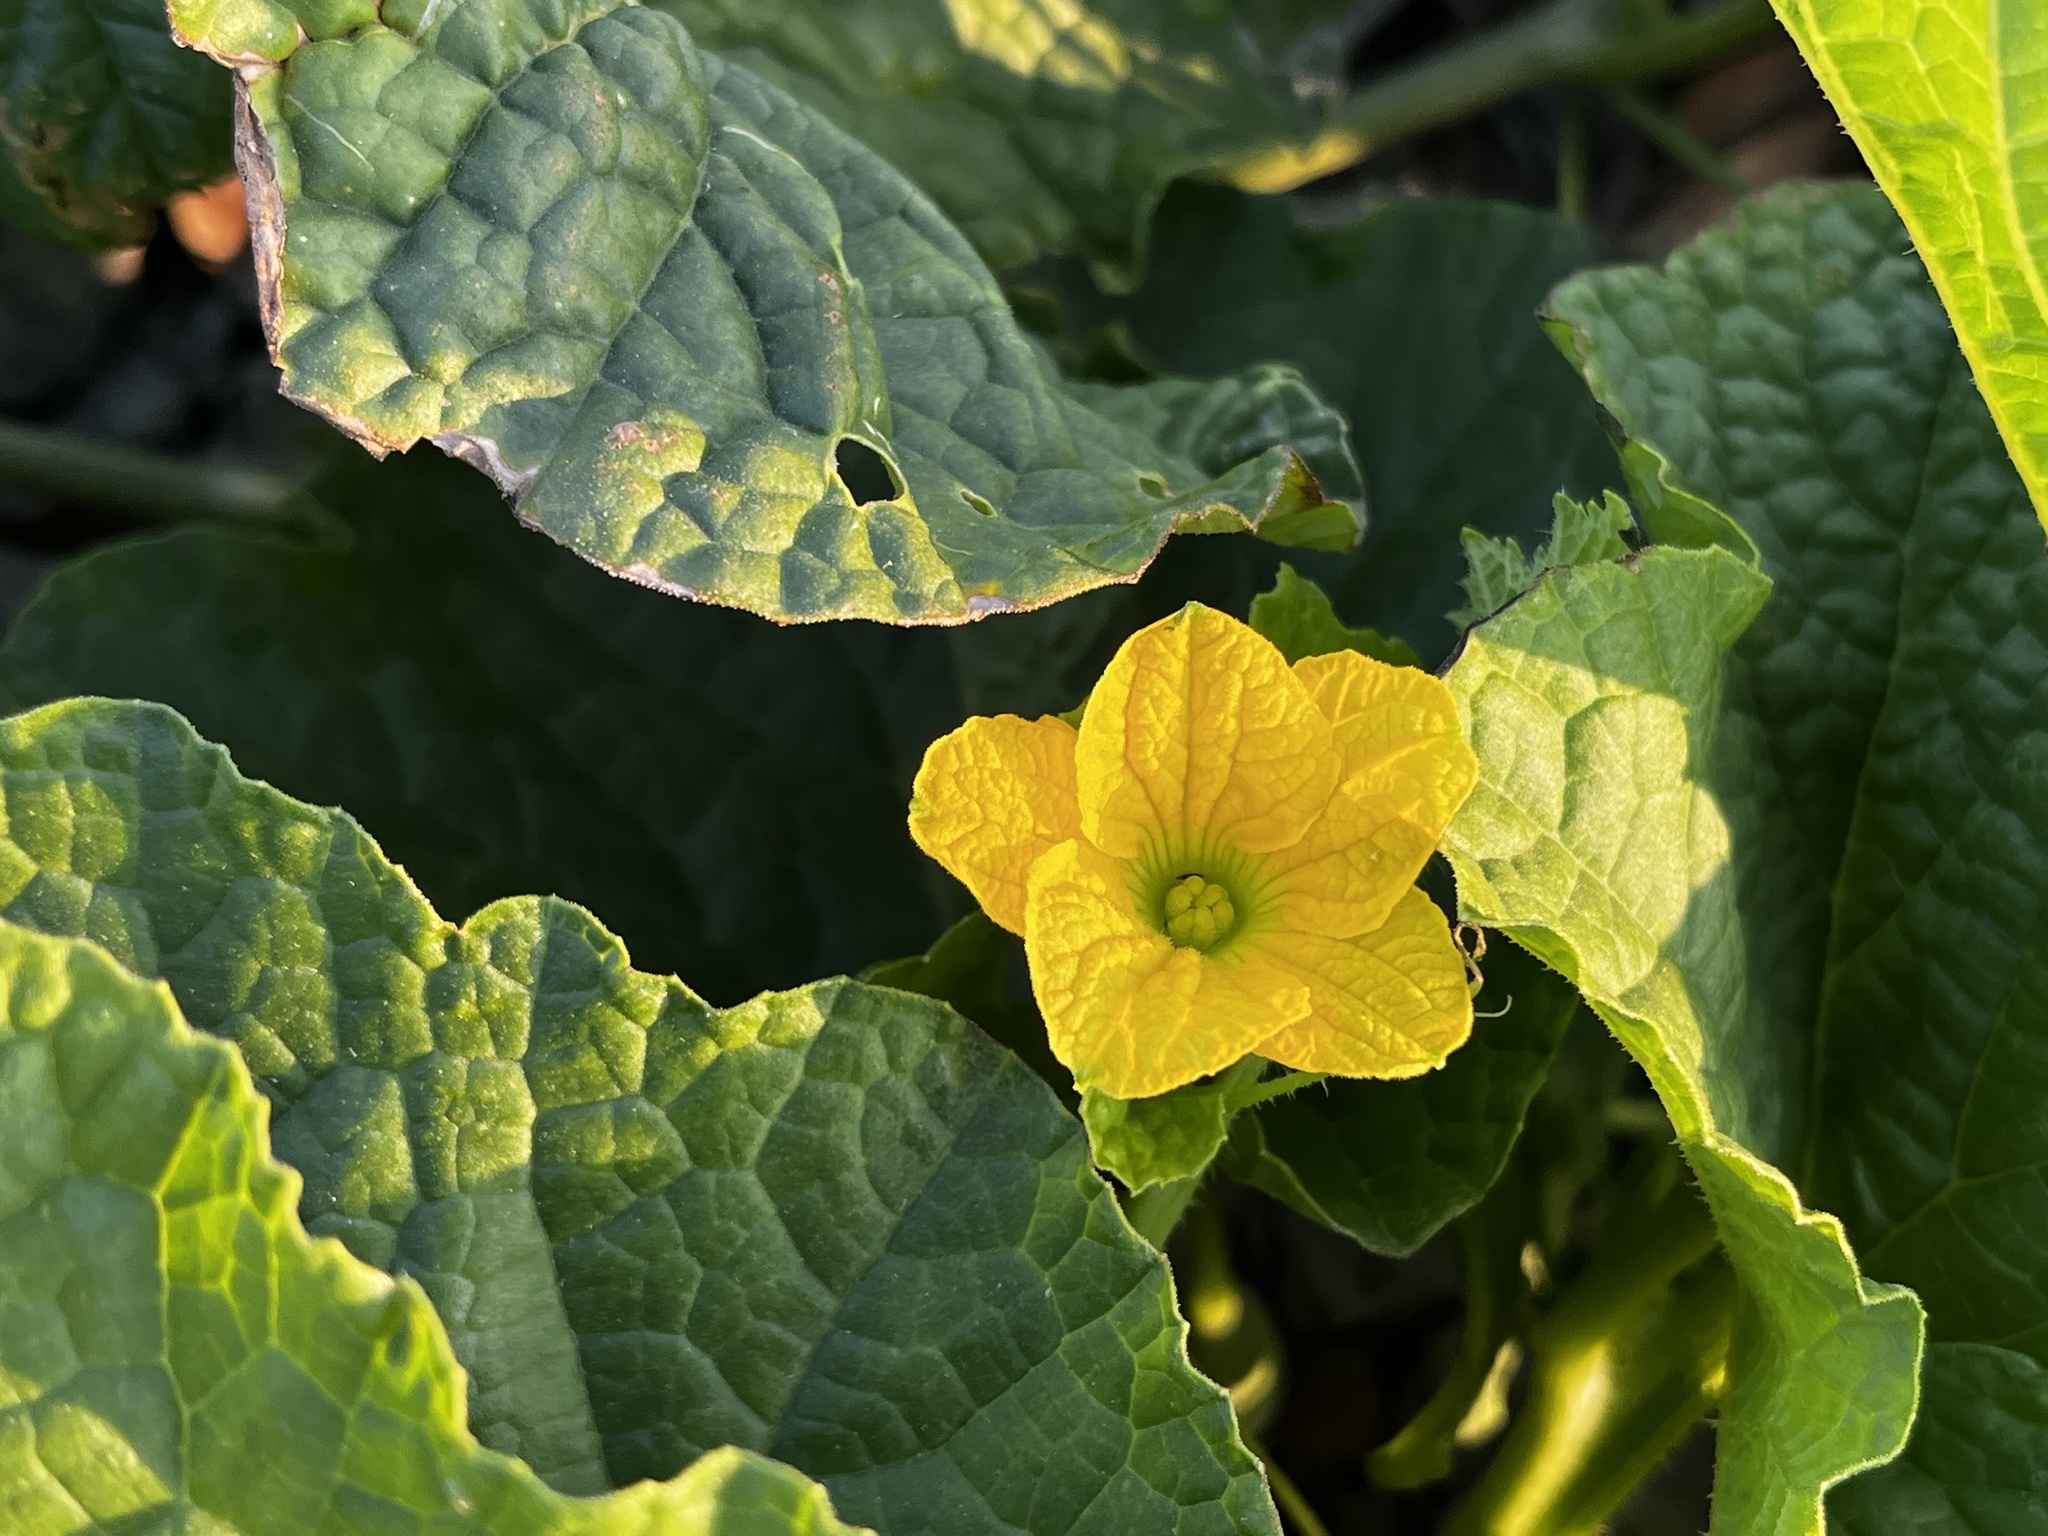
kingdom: Plantae
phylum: Tracheophyta
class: Magnoliopsida
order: Cucurbitales
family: Cucurbitaceae
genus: Cucumis
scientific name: Cucumis melo
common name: Melon
